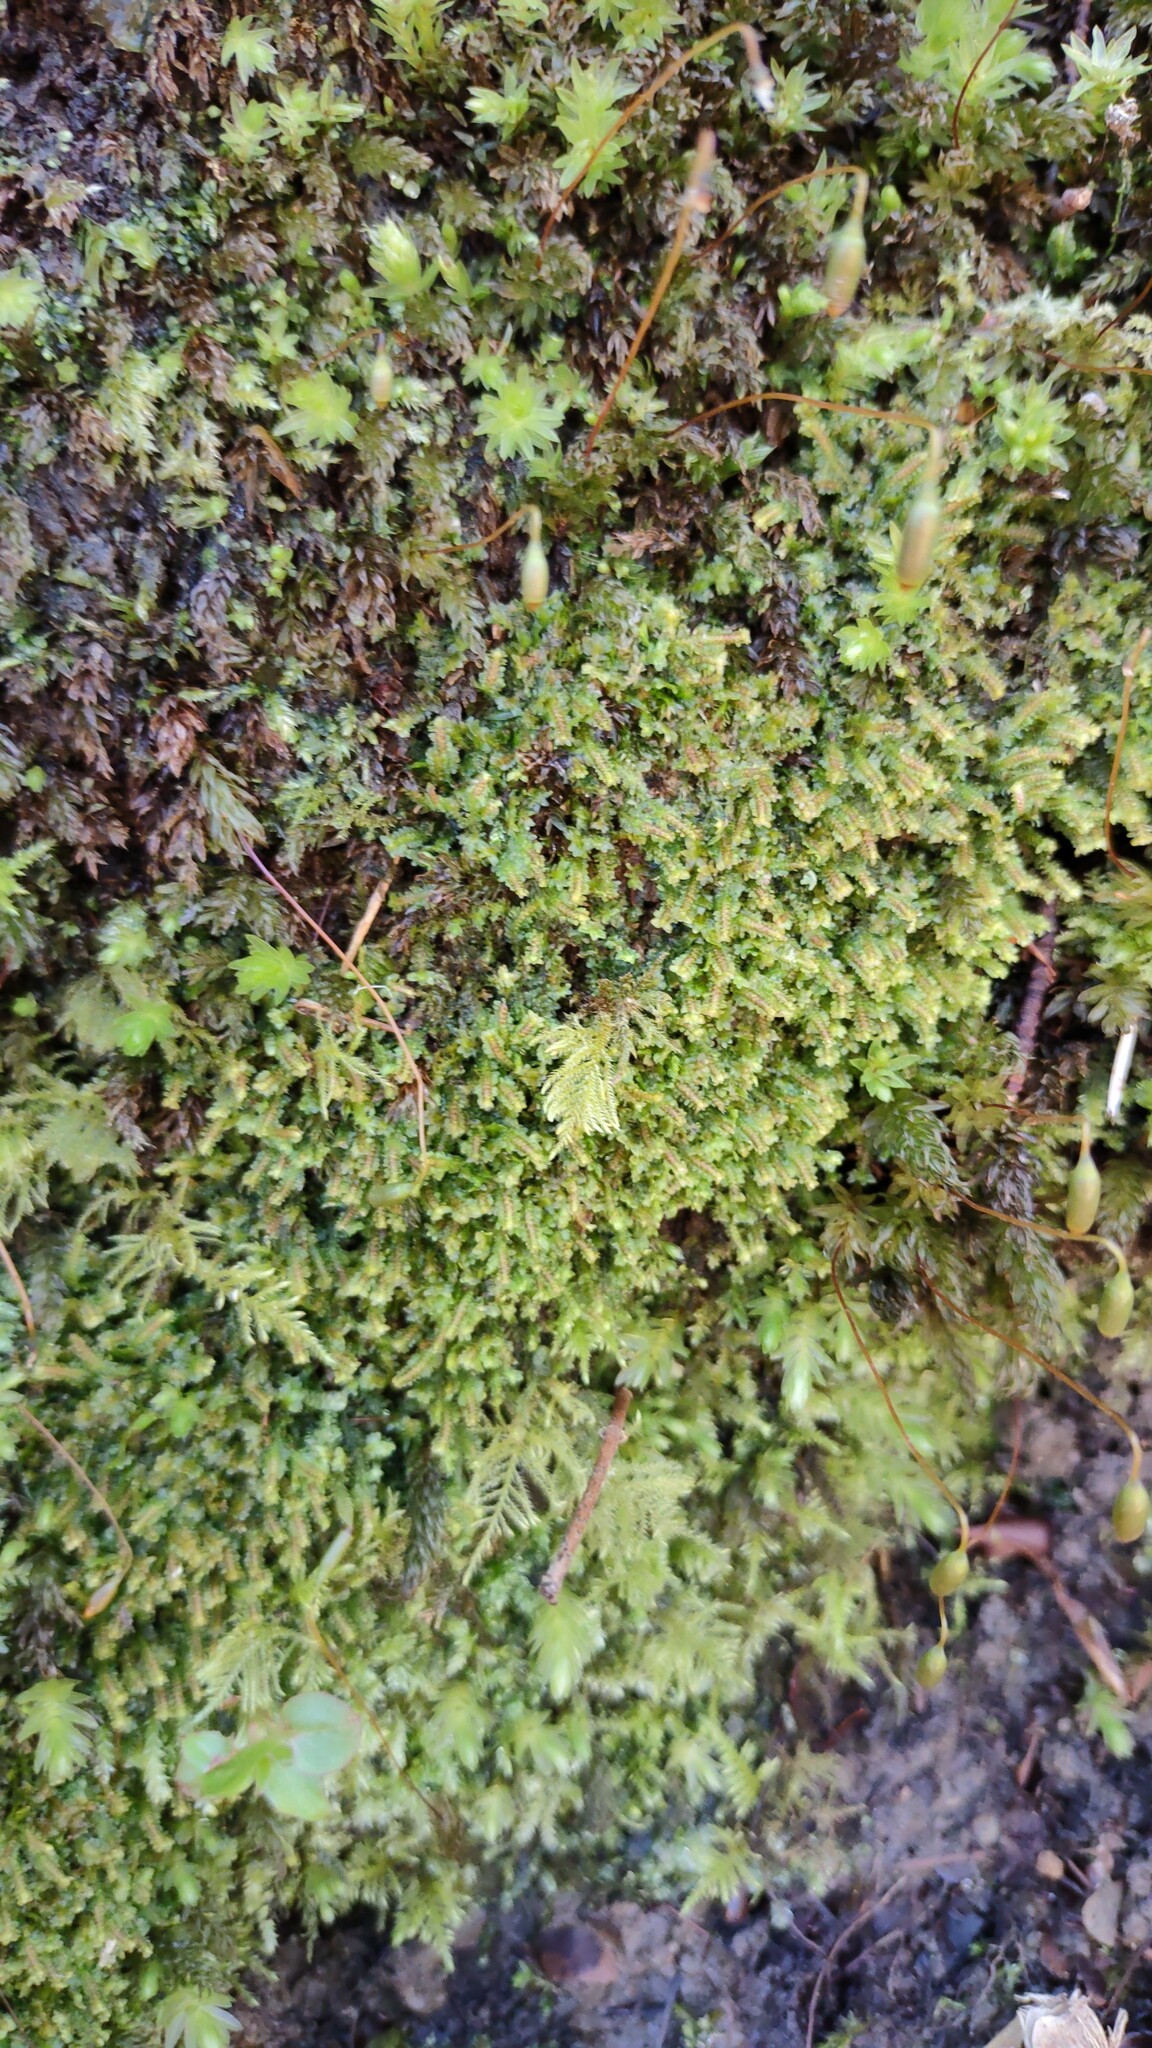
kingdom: Plantae
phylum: Marchantiophyta
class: Jungermanniopsida
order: Jungermanniales
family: Scapaniaceae
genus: Diplophyllum
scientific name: Diplophyllum albicans
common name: White earwort
